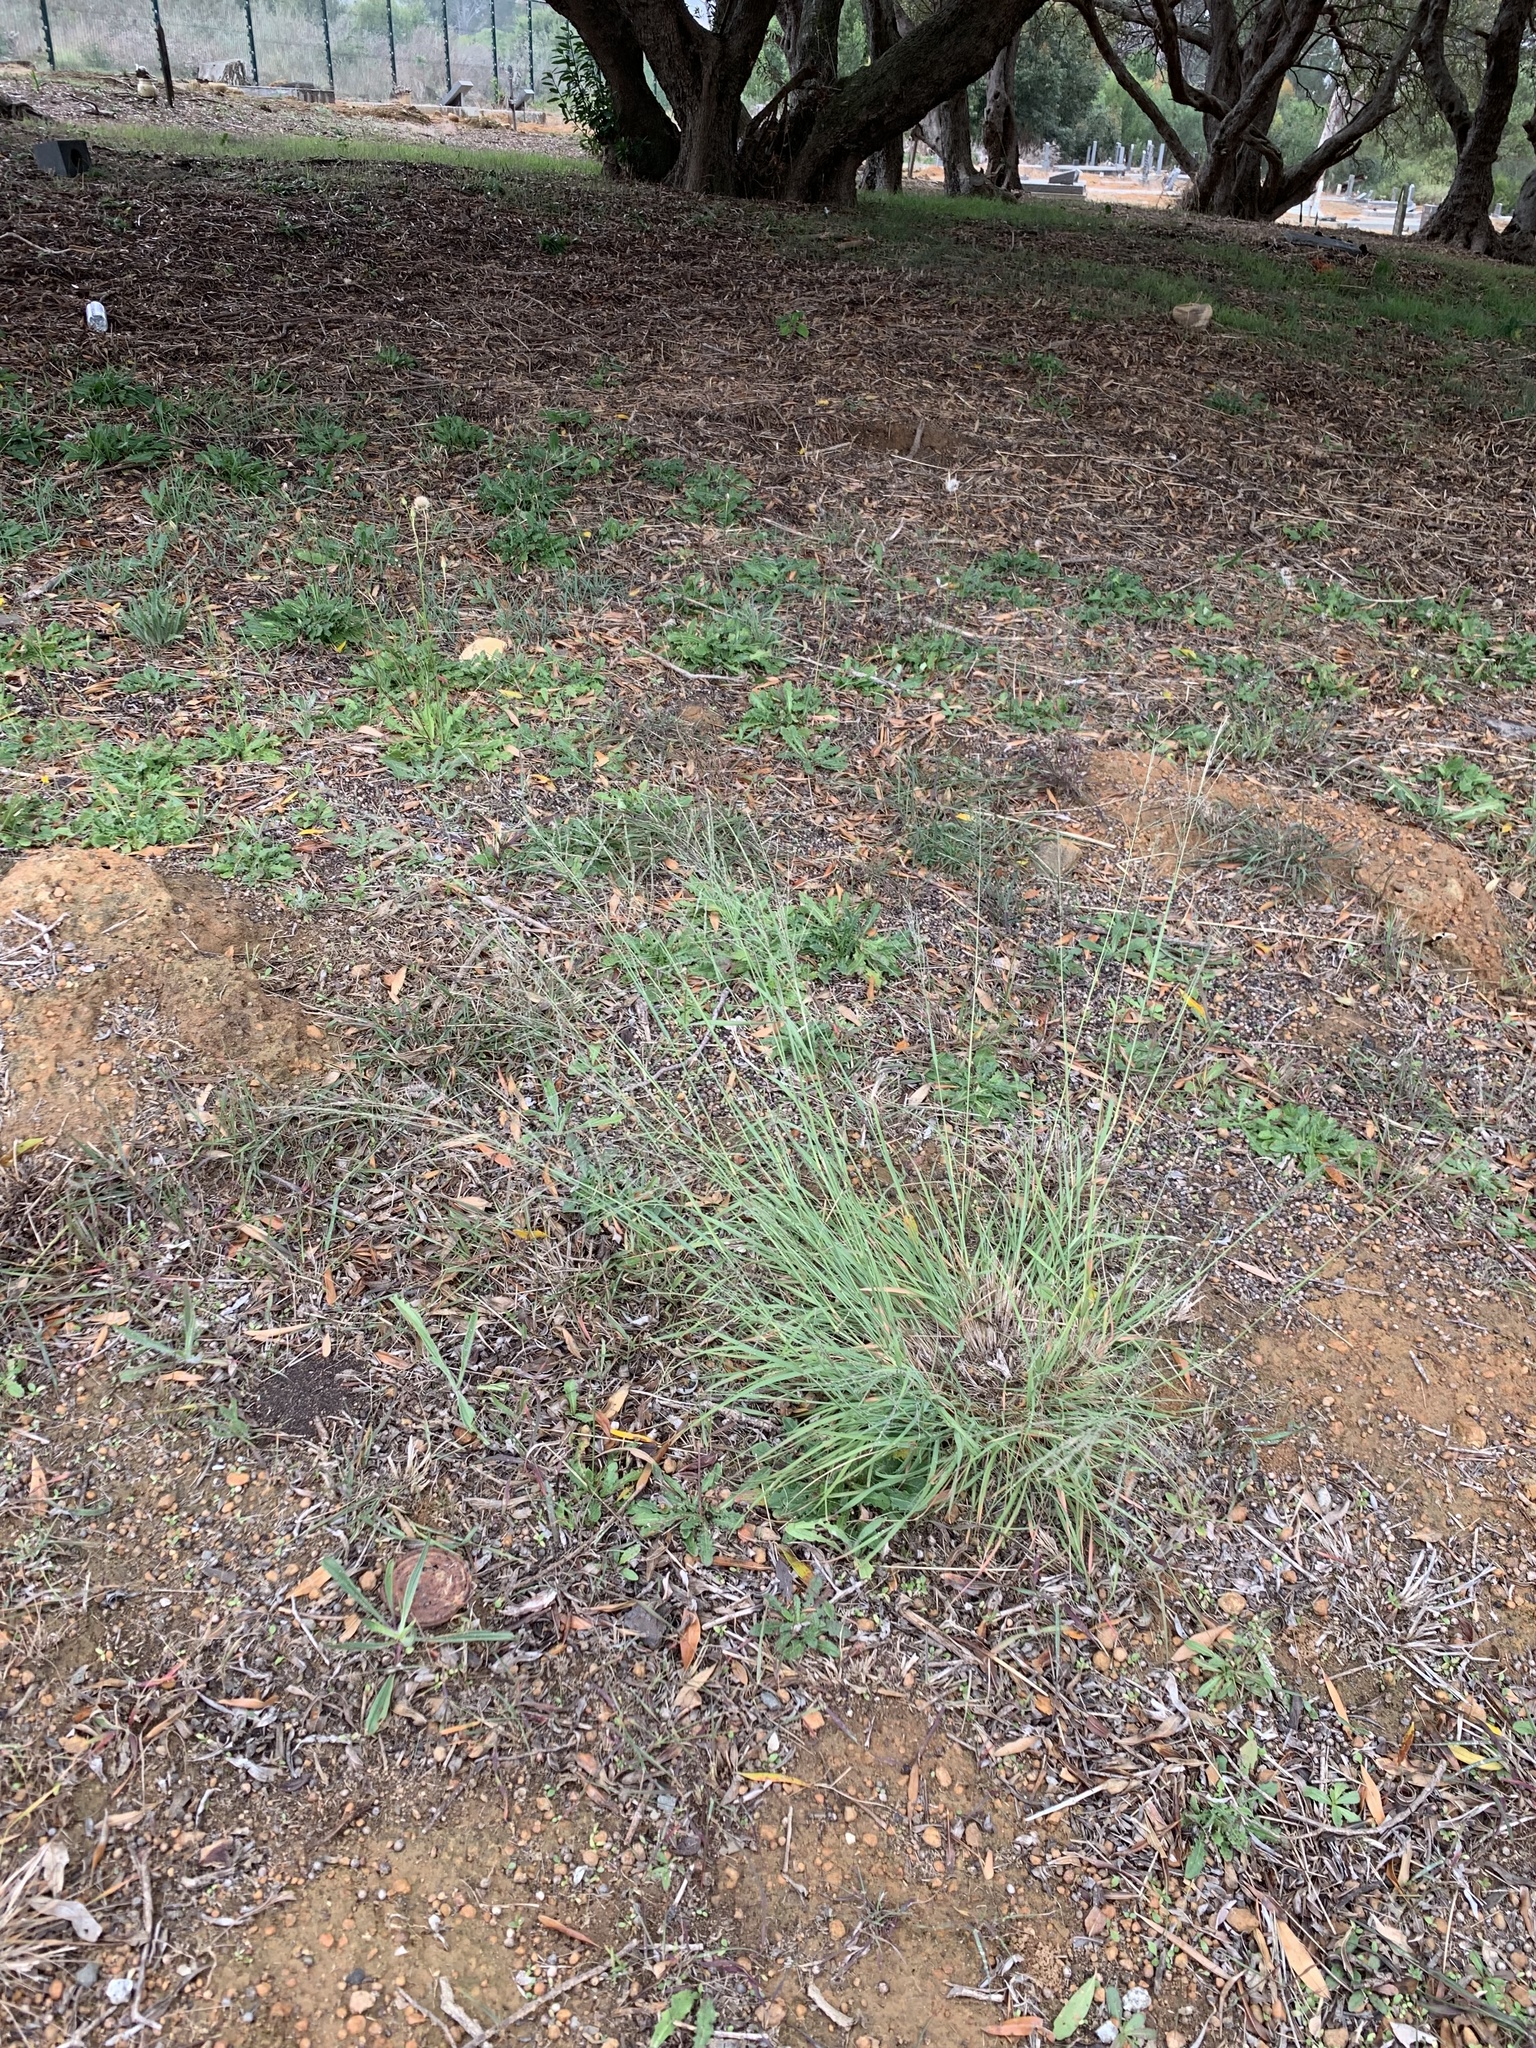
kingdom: Plantae
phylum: Tracheophyta
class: Liliopsida
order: Poales
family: Poaceae
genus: Eragrostis
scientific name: Eragrostis curvula
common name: African love-grass
